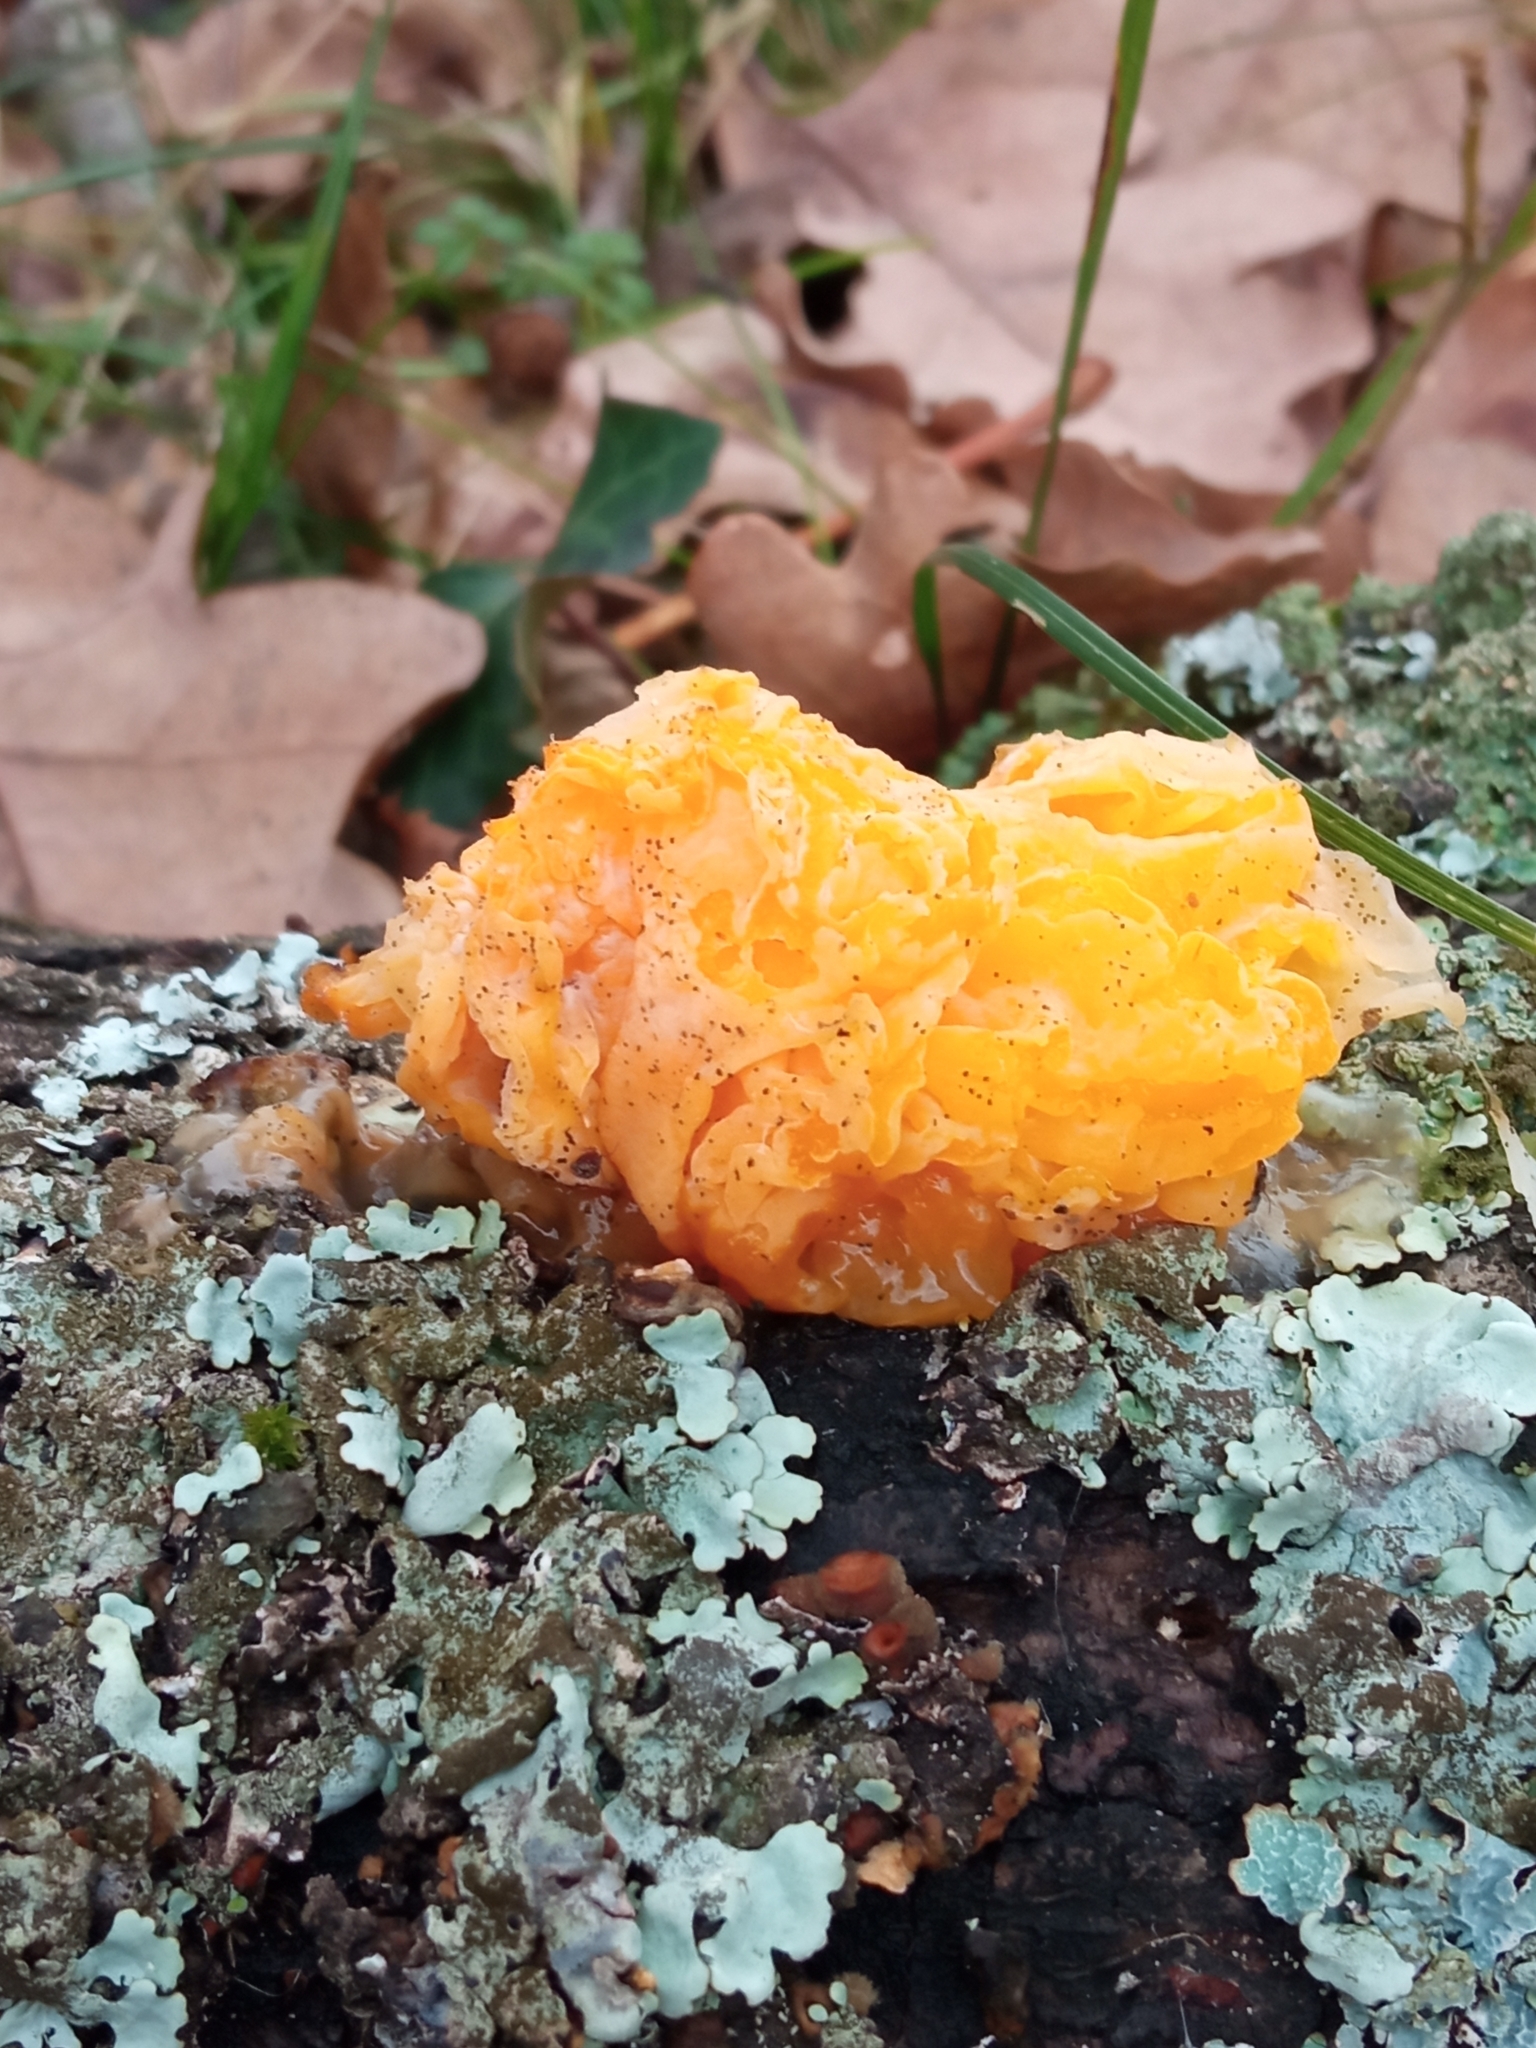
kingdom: Fungi
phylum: Basidiomycota
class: Tremellomycetes
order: Tremellales
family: Naemateliaceae
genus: Naematelia
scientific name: Naematelia aurantia
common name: Golden ear
